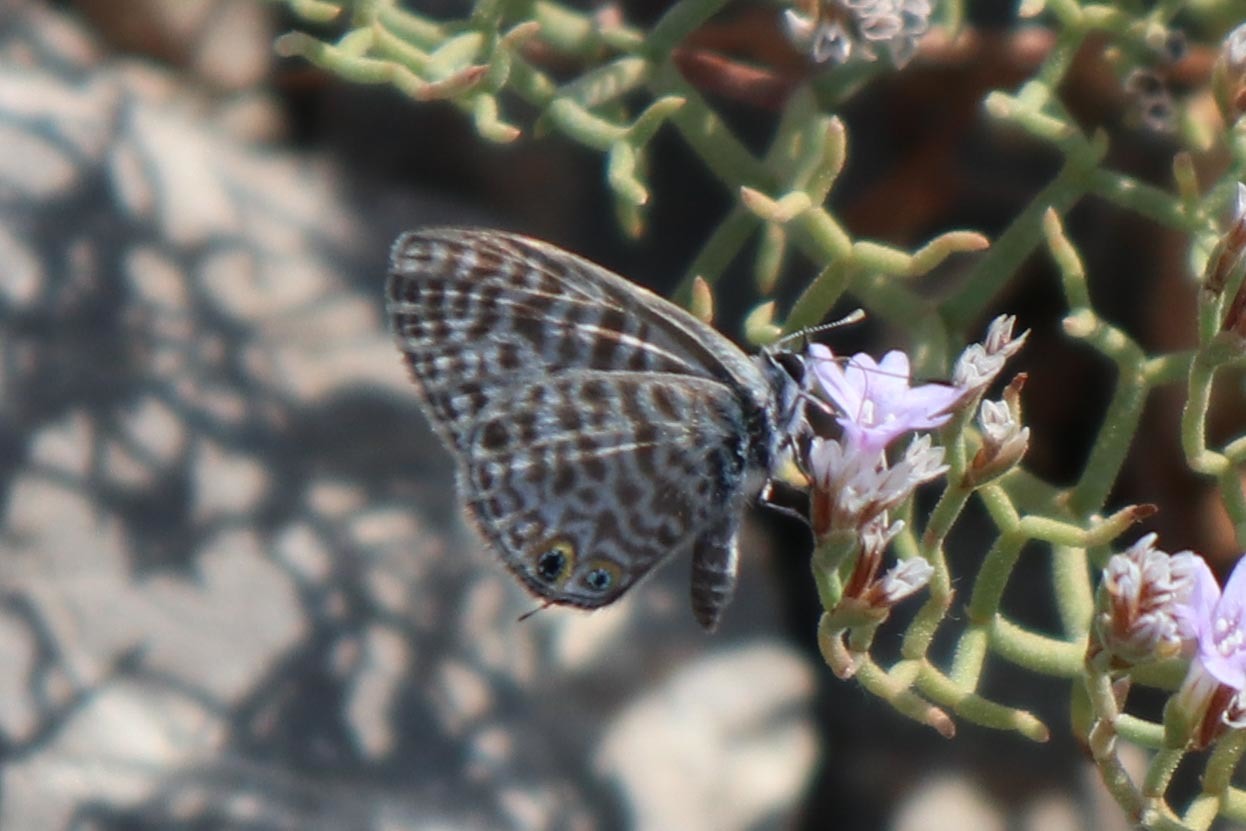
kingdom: Animalia
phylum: Arthropoda
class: Insecta
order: Lepidoptera
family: Lycaenidae
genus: Leptotes
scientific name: Leptotes pirithous
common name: Lang's short-tailed blue
